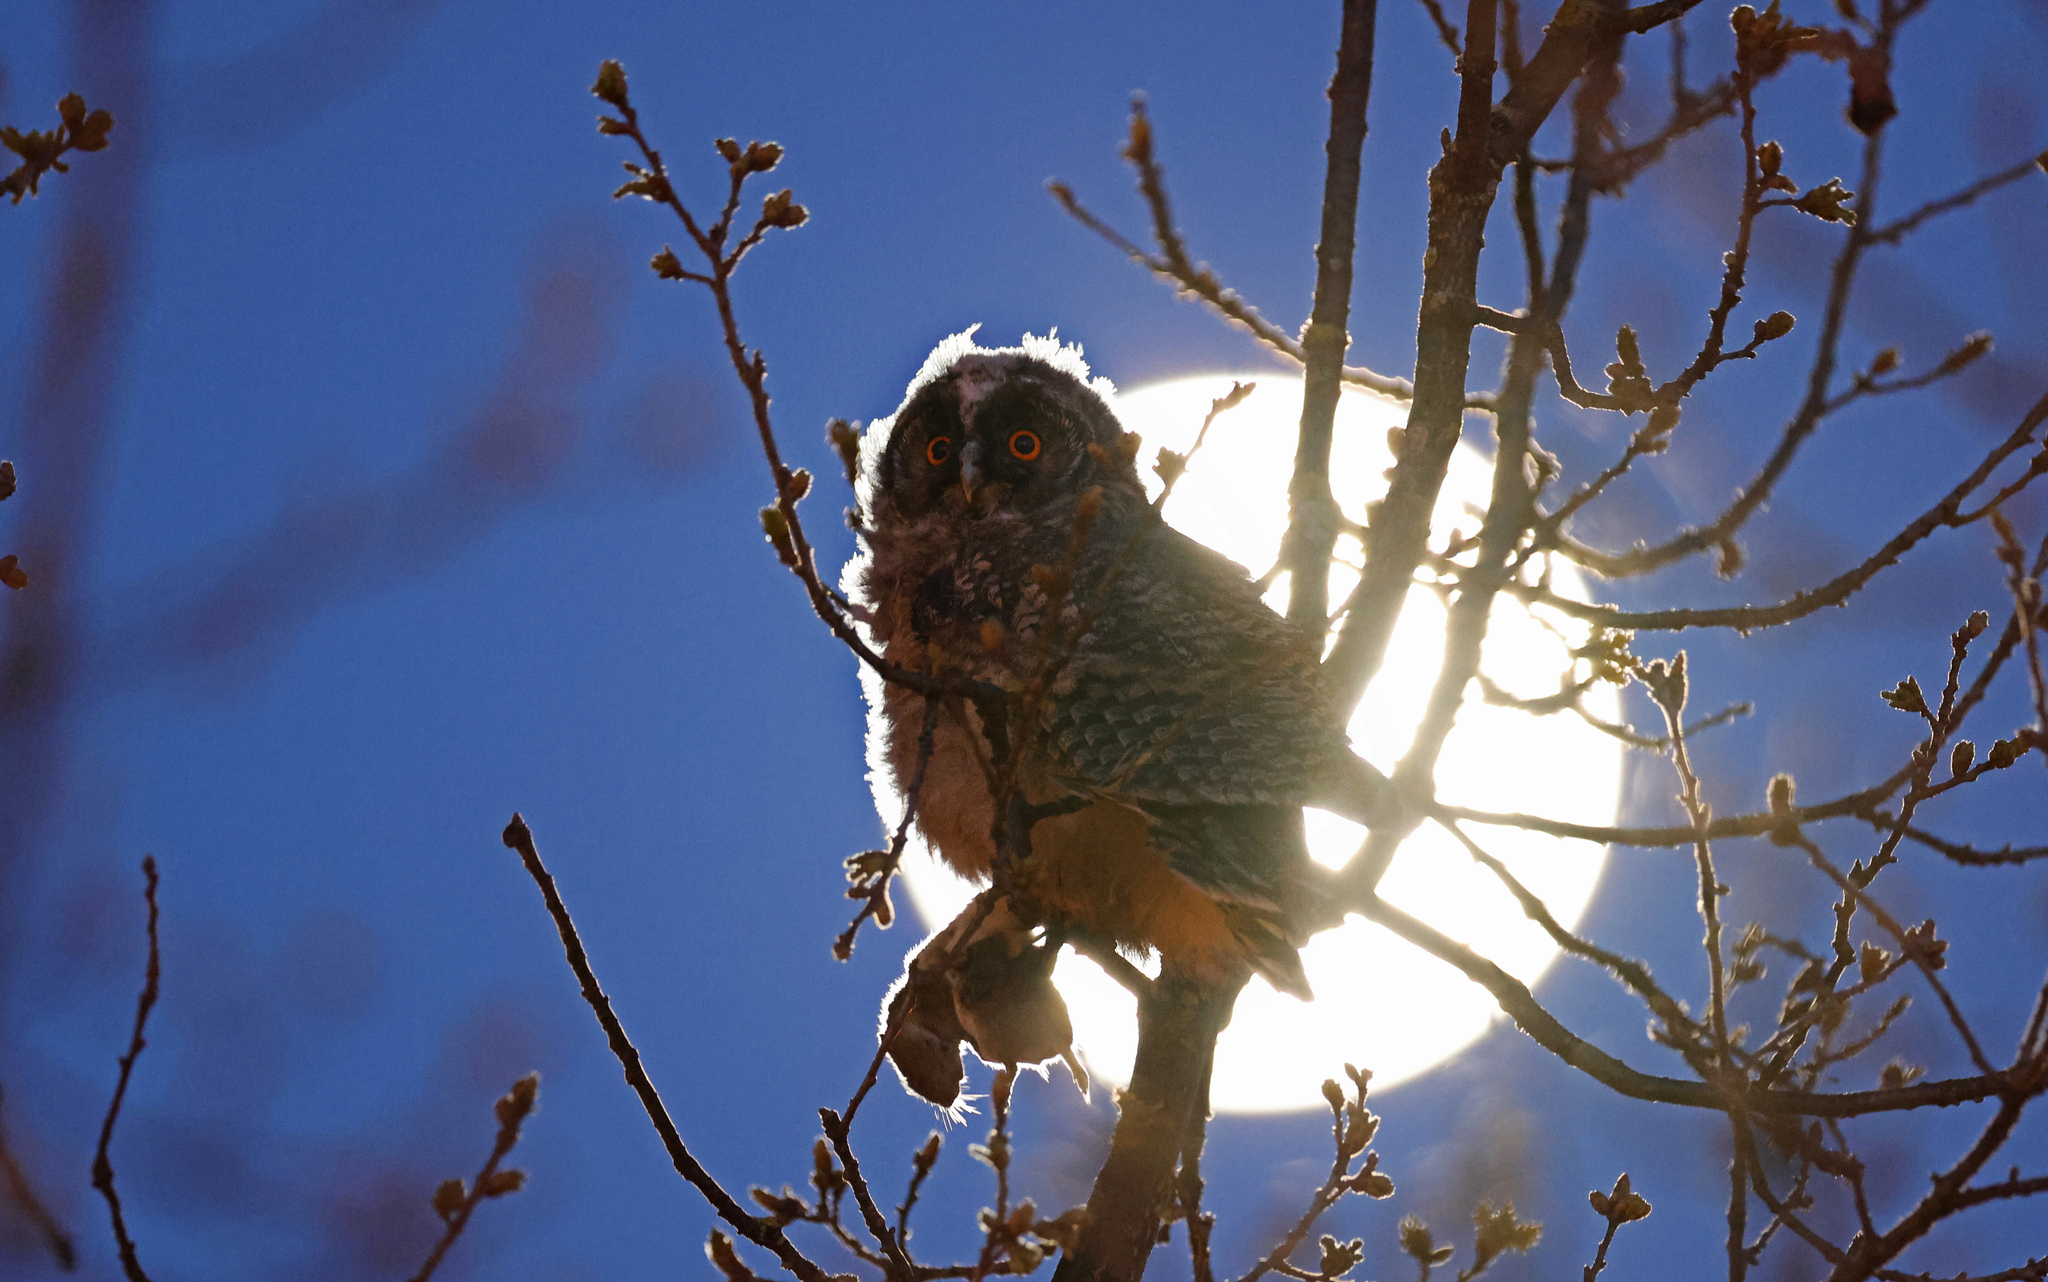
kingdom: Animalia
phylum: Chordata
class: Aves
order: Strigiformes
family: Strigidae
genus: Asio
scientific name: Asio otus
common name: Long-eared owl
